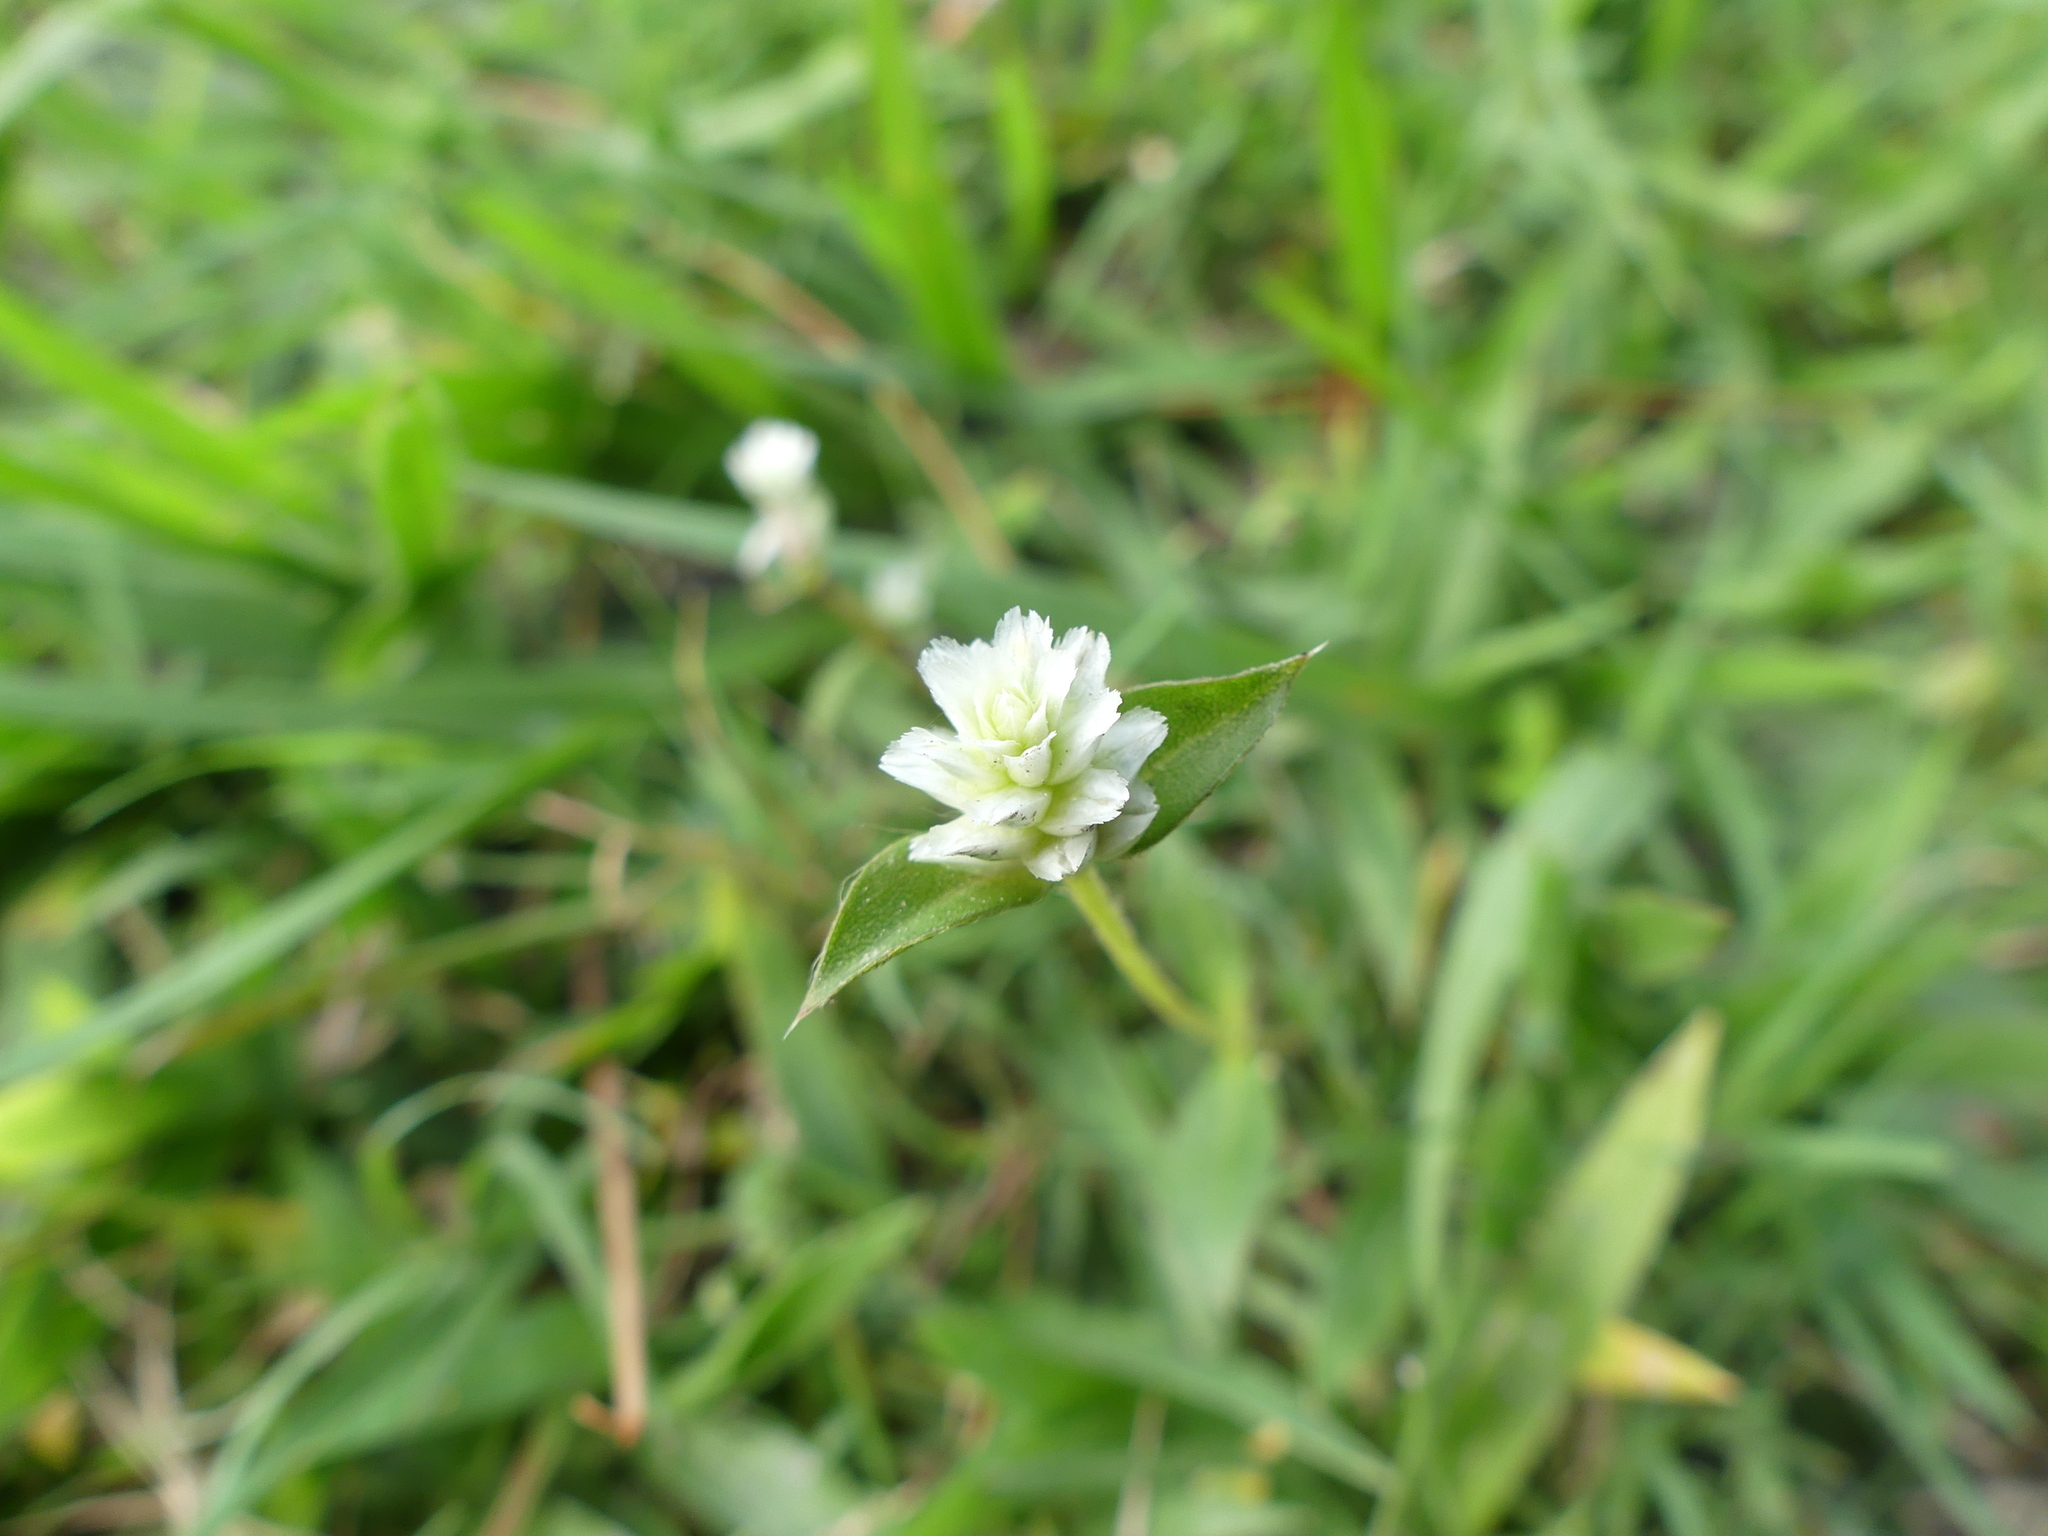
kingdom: Plantae
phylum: Tracheophyta
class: Magnoliopsida
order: Caryophyllales
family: Amaranthaceae
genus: Gomphrena
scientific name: Gomphrena serrata
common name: Arrasa con todo
